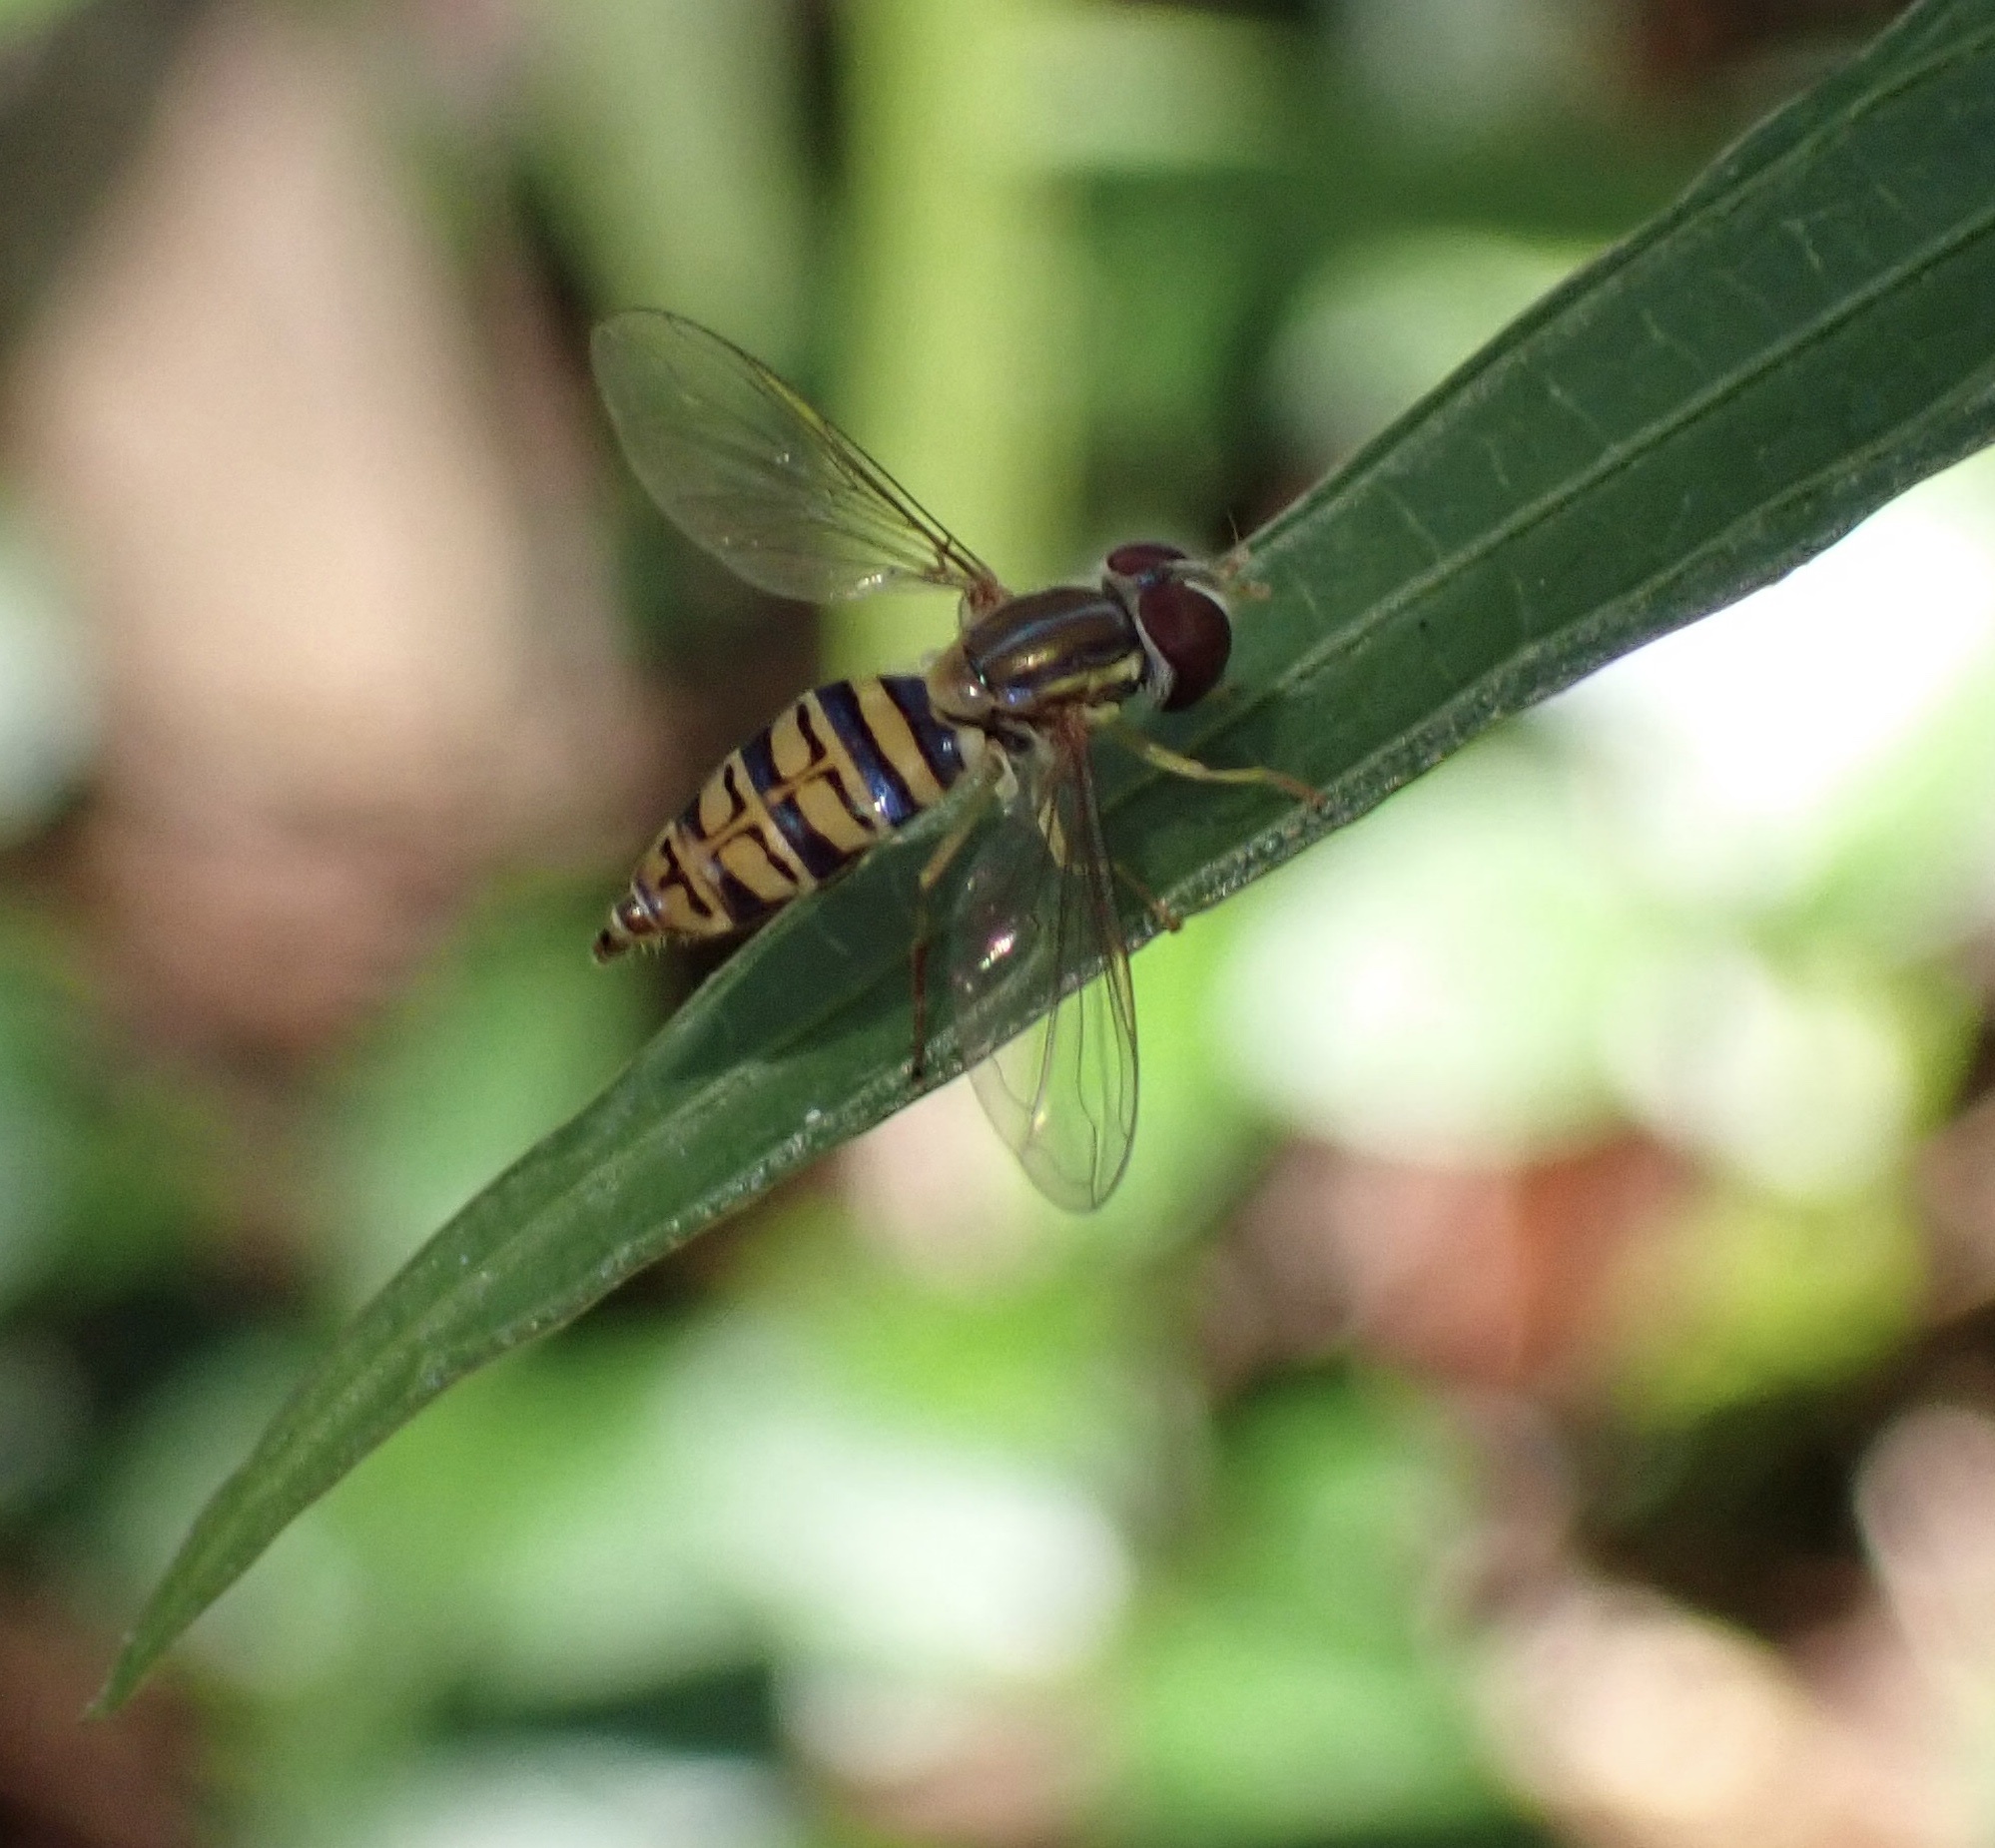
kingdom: Animalia
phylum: Arthropoda
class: Insecta
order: Diptera
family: Syrphidae
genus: Toxomerus
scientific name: Toxomerus politus
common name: Maize calligrapher
